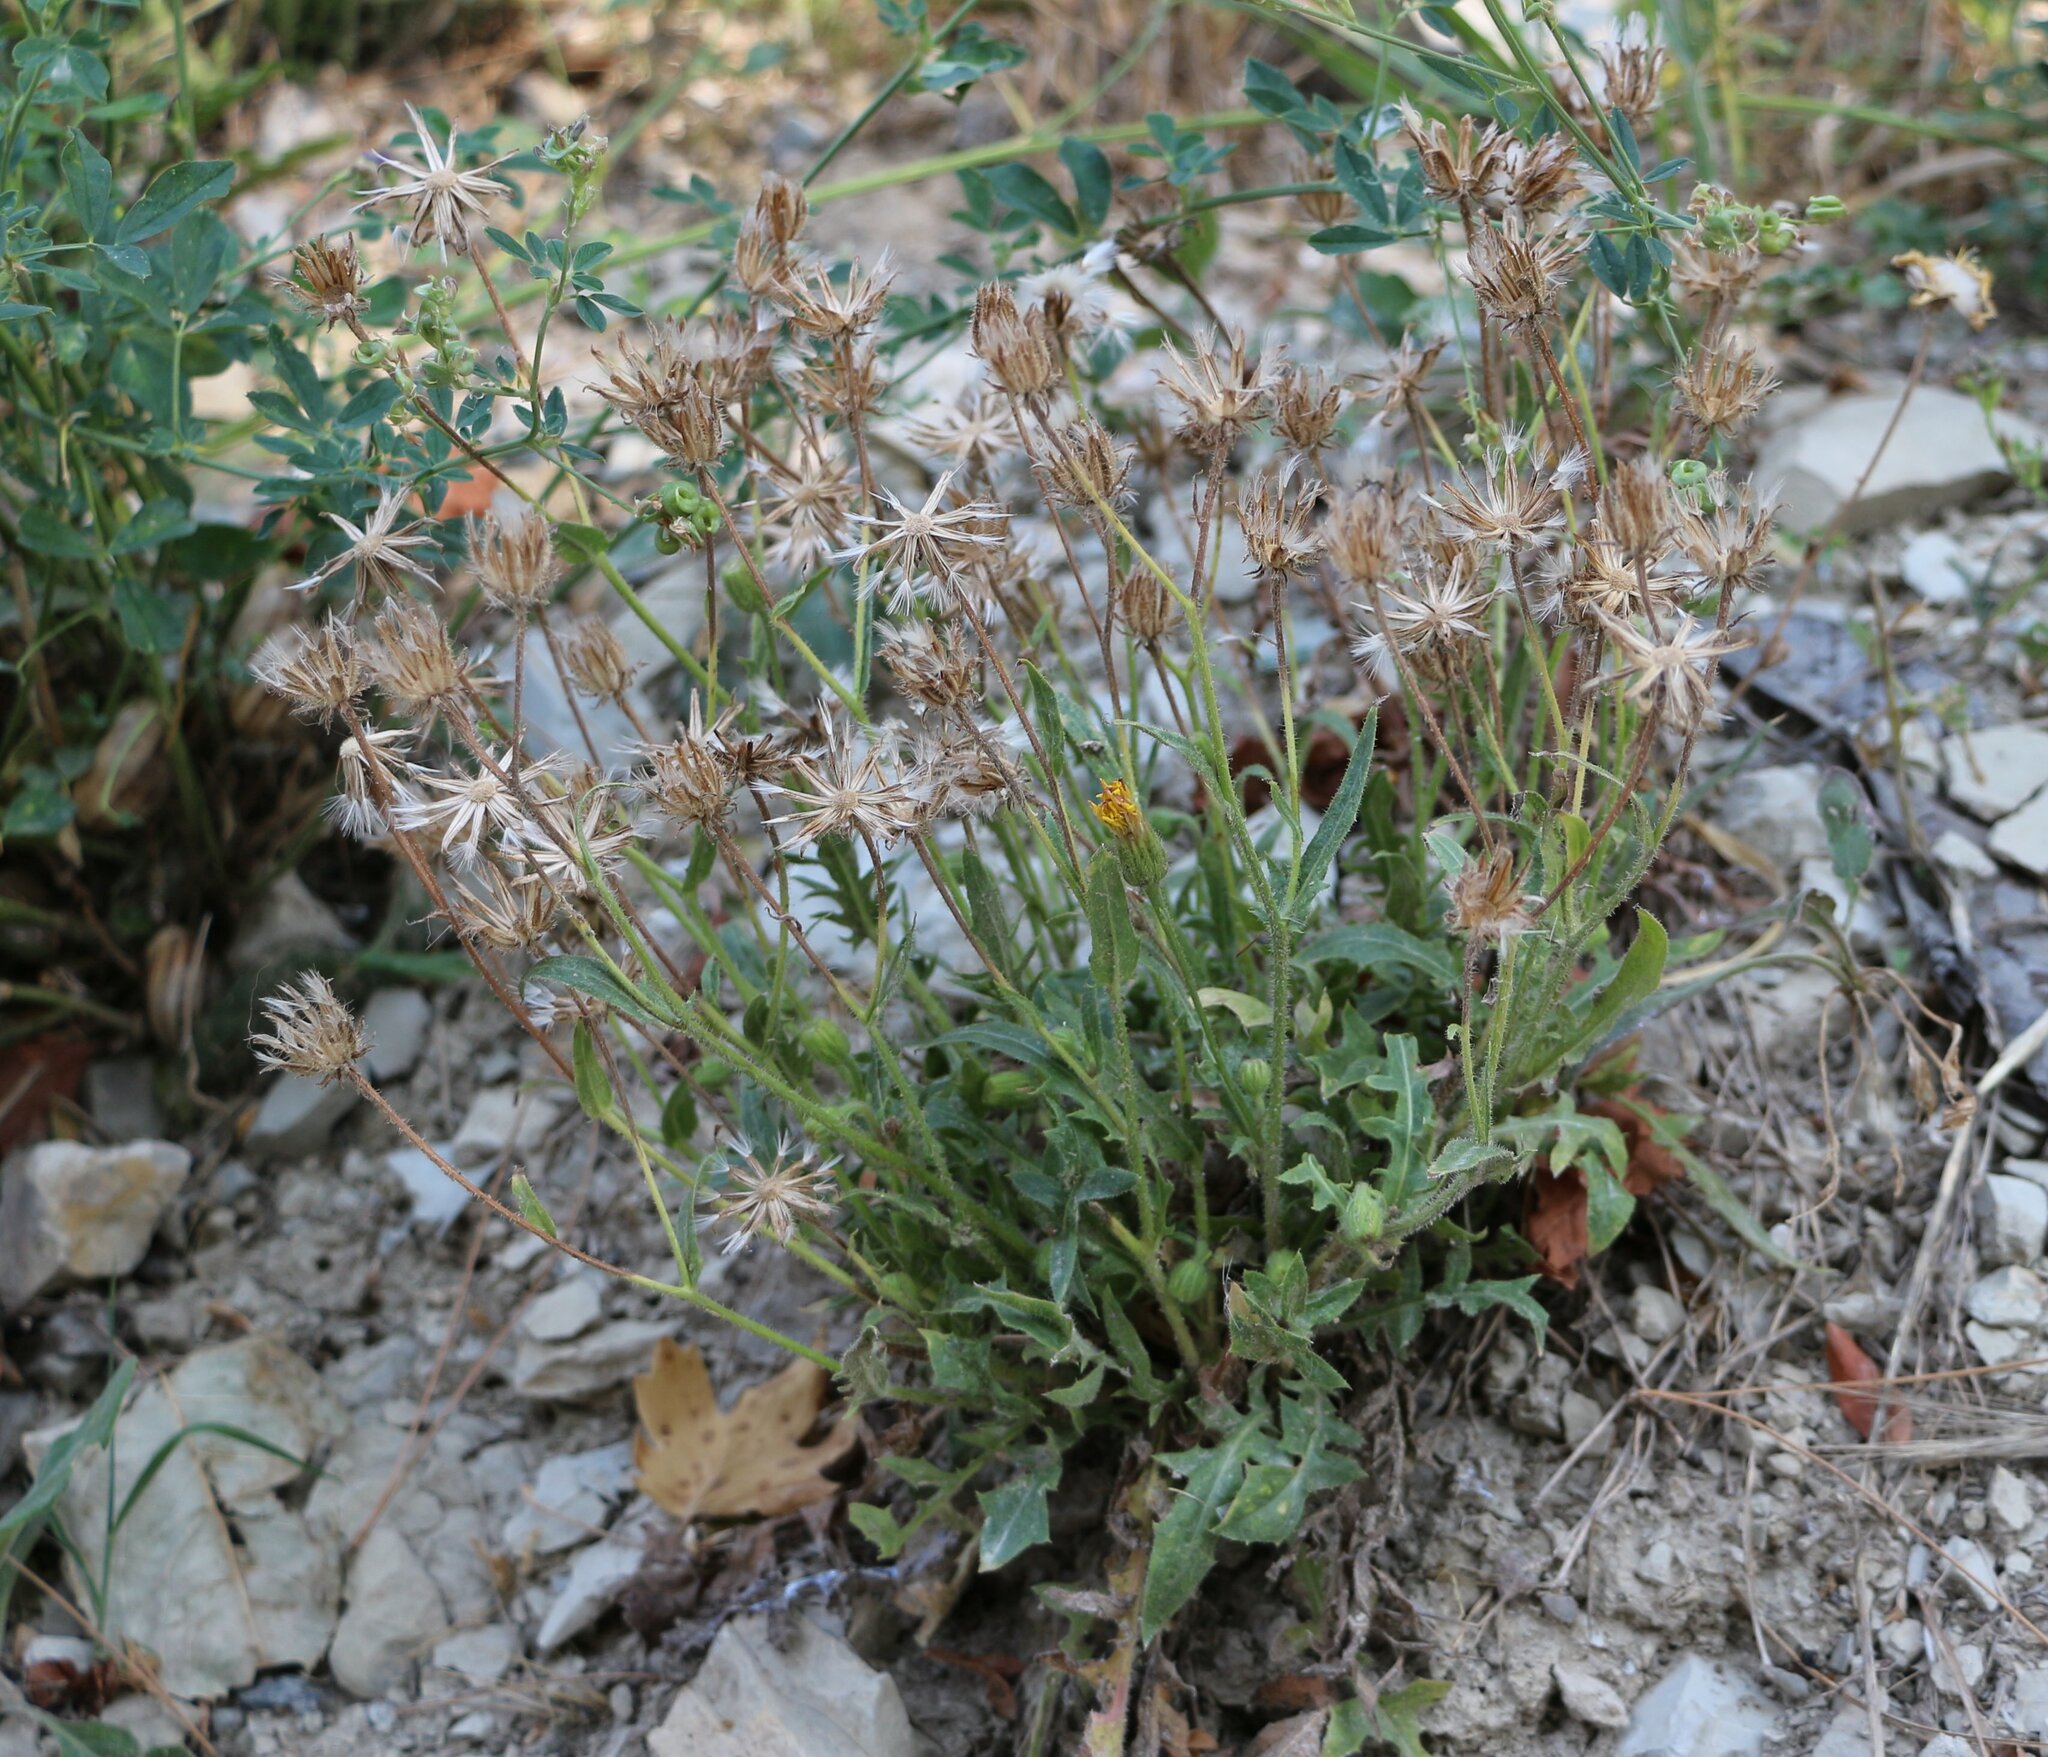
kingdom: Plantae
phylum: Tracheophyta
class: Magnoliopsida
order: Asterales
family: Asteraceae
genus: Crepis
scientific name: Crepis foetida
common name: Stinking hawk's-beard
